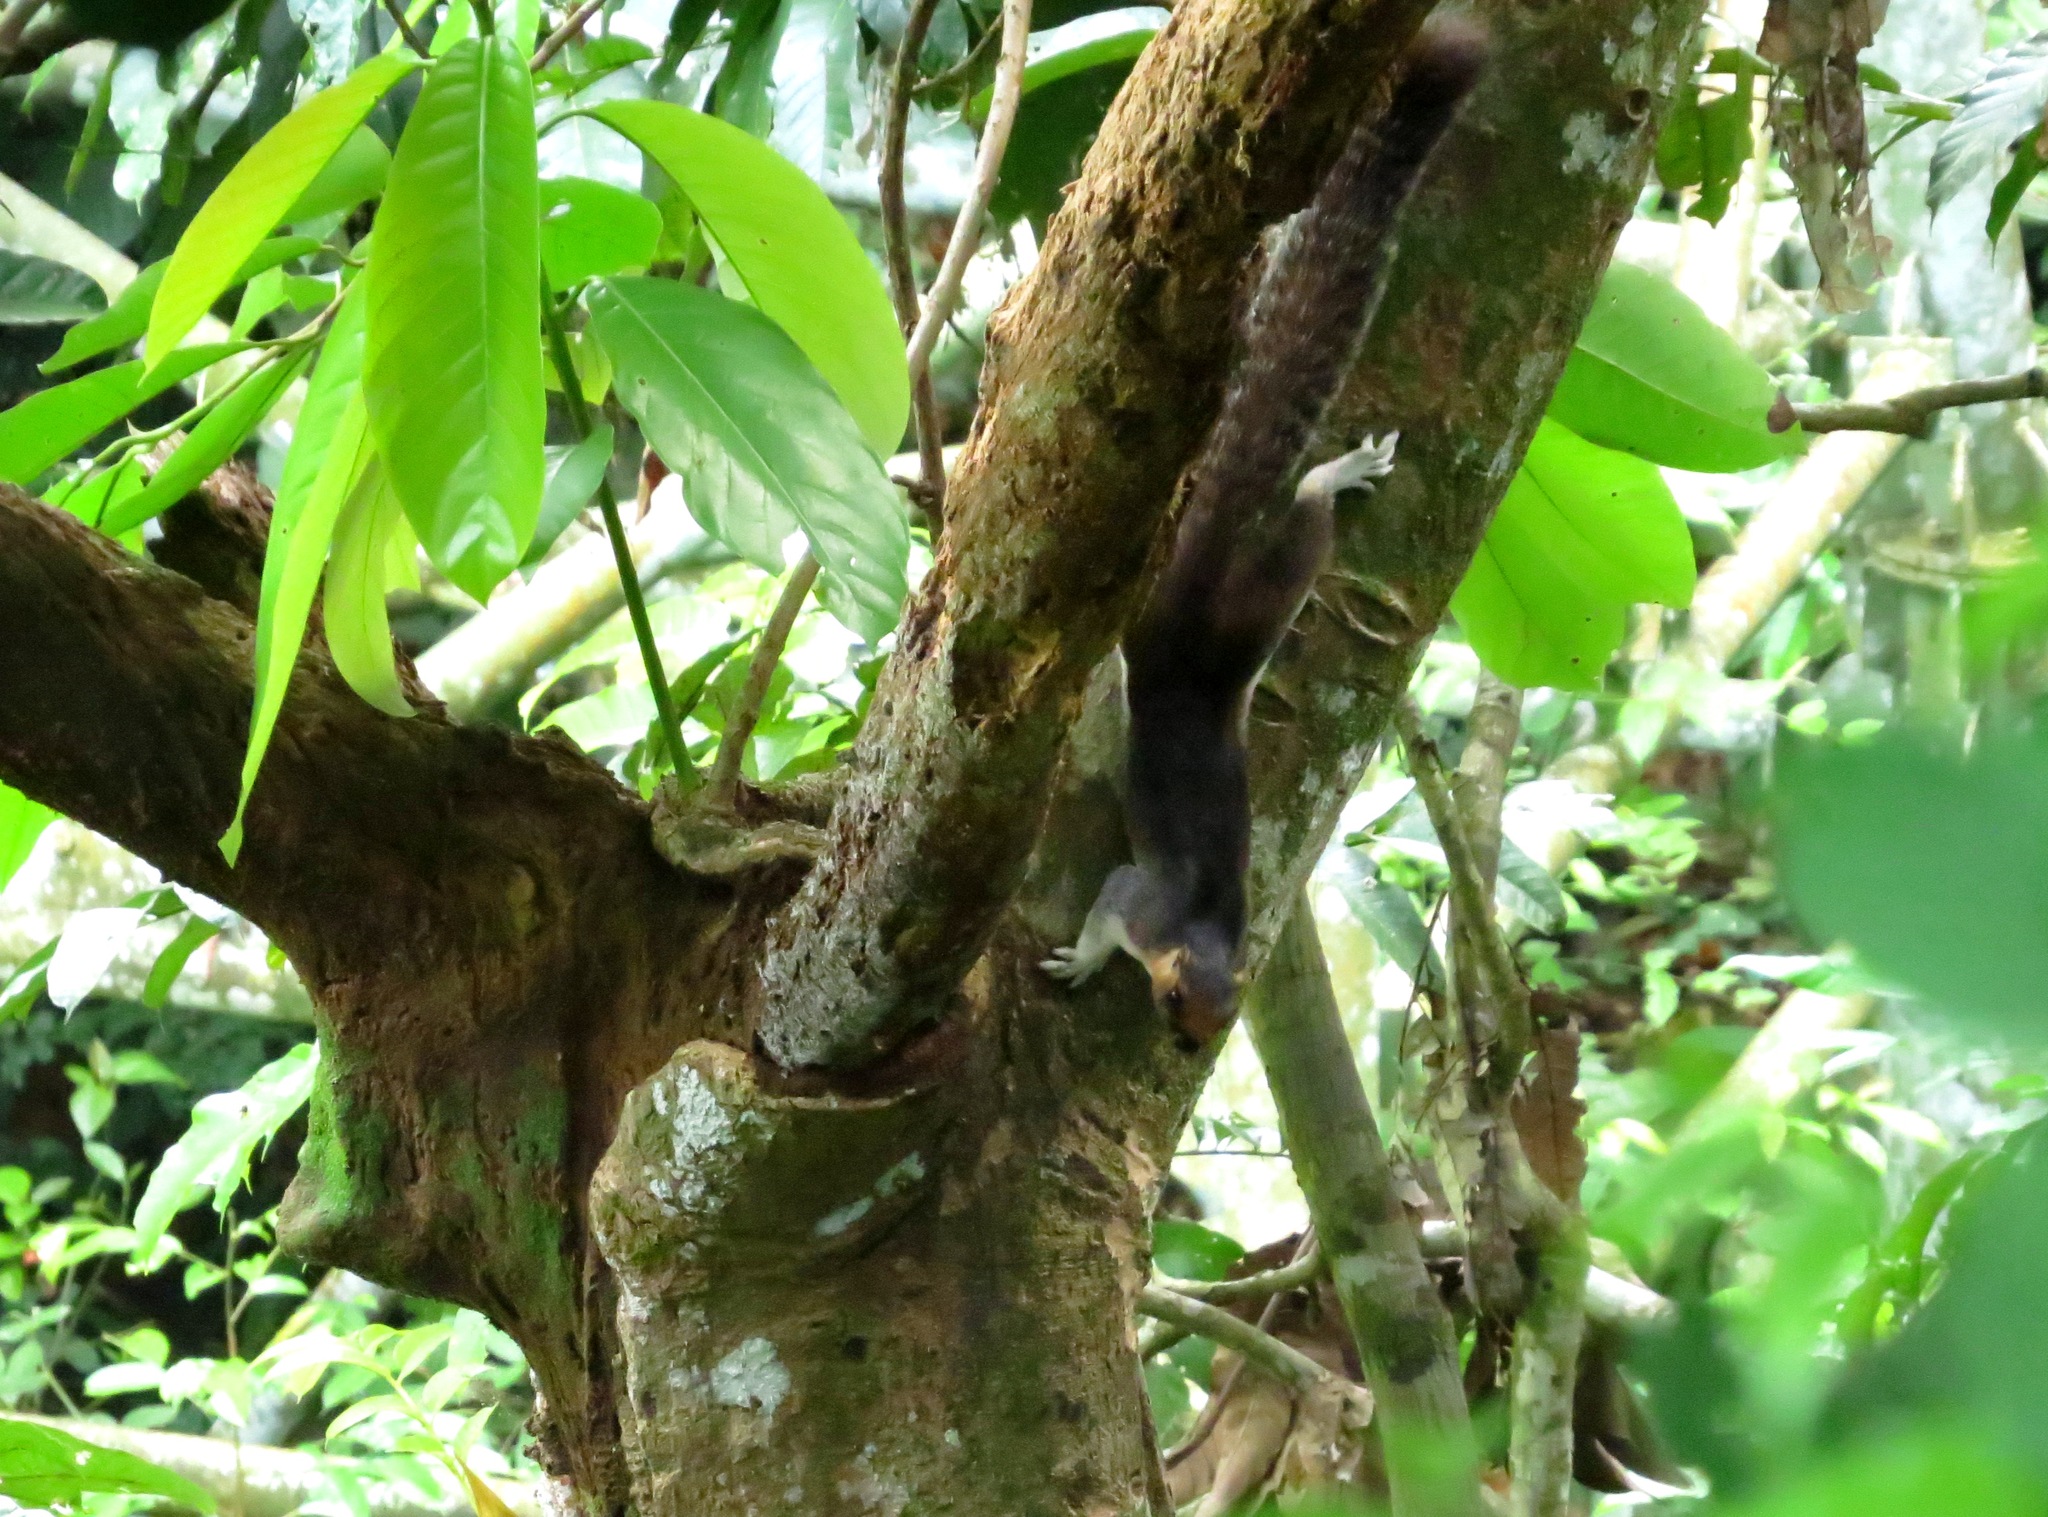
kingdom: Animalia
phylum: Chordata
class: Mammalia
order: Rodentia
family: Sciuridae
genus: Ratufa
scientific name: Ratufa affinis
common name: Pale giant squirrel
